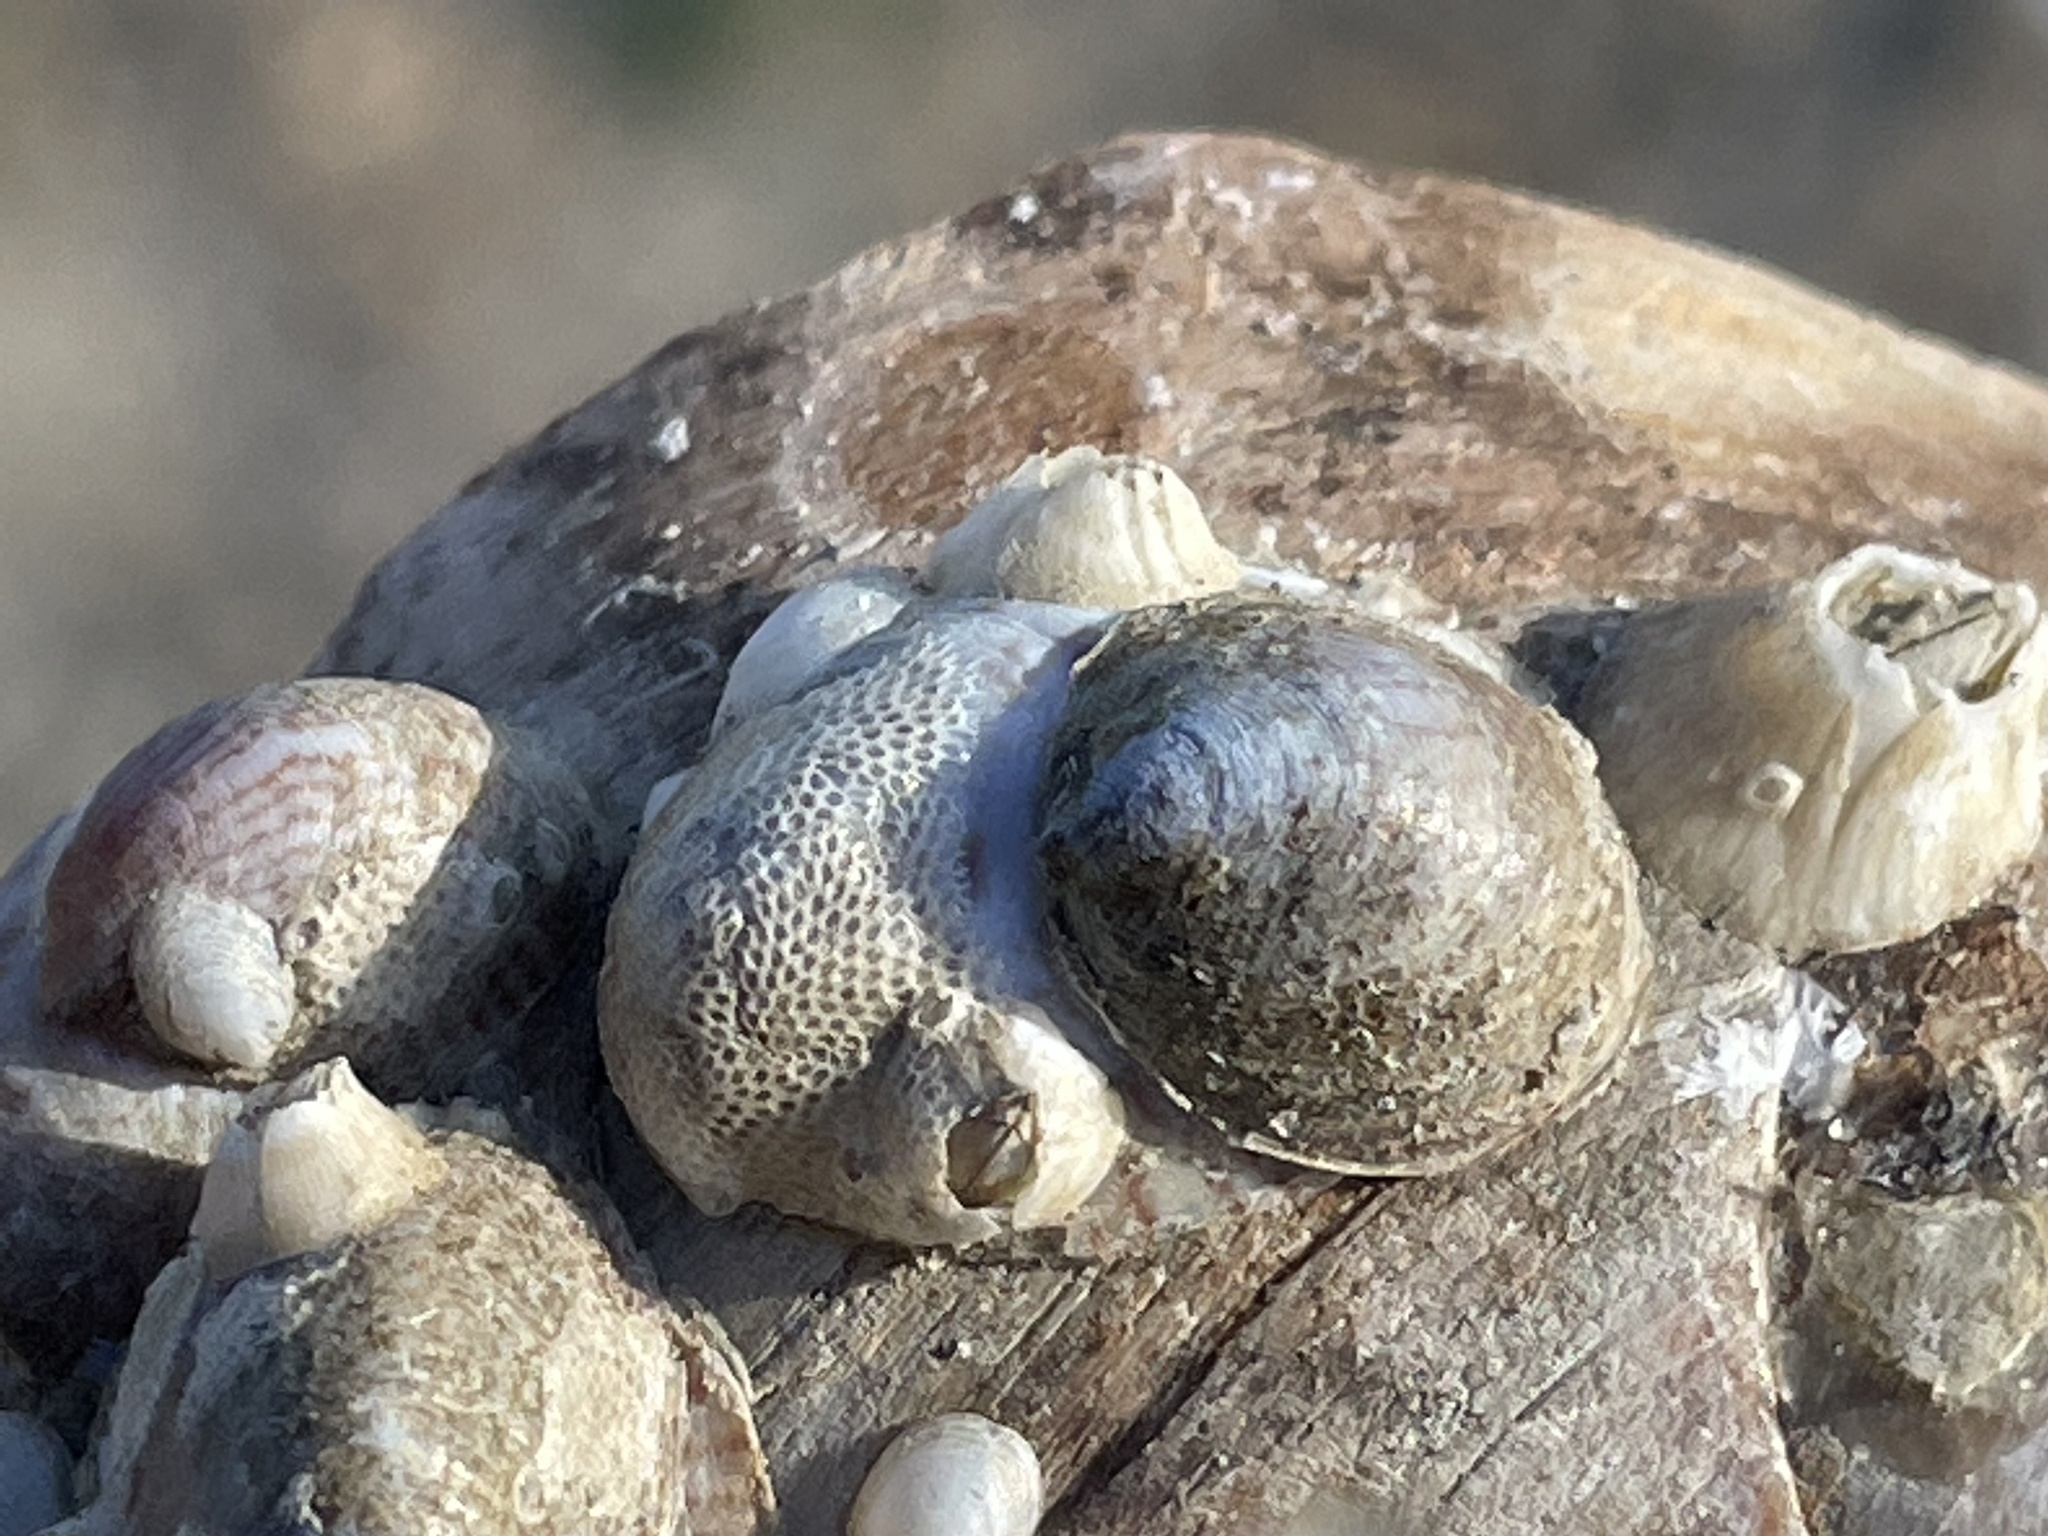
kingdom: Animalia
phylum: Mollusca
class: Gastropoda
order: Littorinimorpha
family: Calyptraeidae
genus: Crepidula
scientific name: Crepidula convexa
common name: Convex slippersnail
